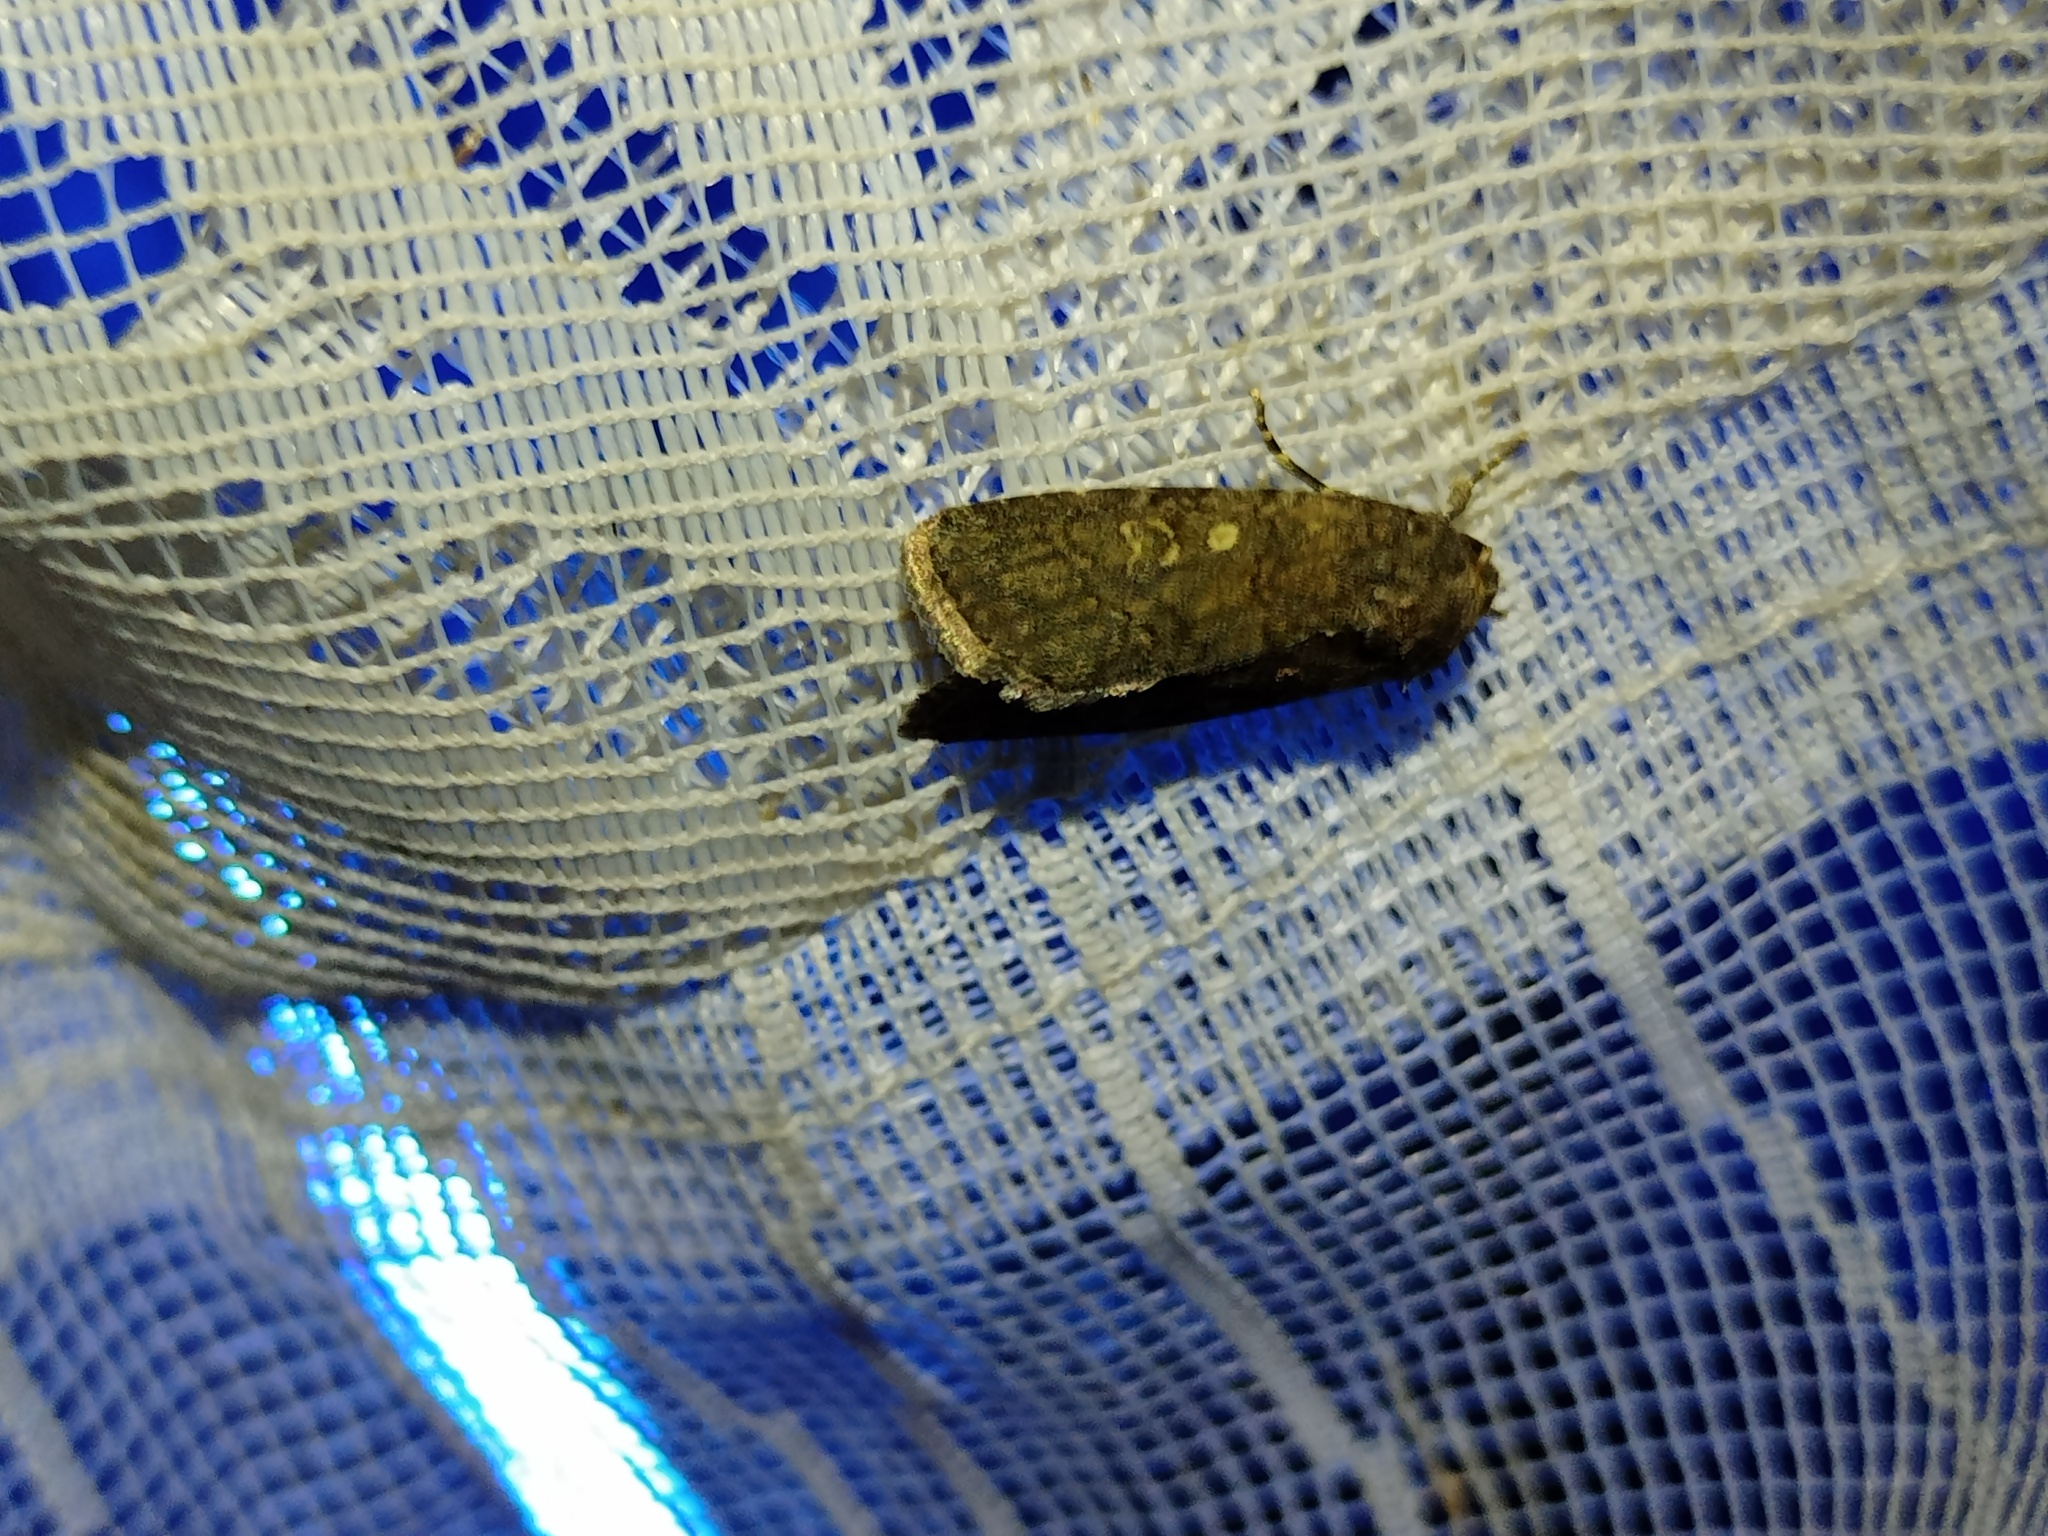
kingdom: Animalia
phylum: Arthropoda
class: Insecta
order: Lepidoptera
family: Noctuidae
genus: Spodoptera
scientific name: Spodoptera cilium
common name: Dark mottled willow
